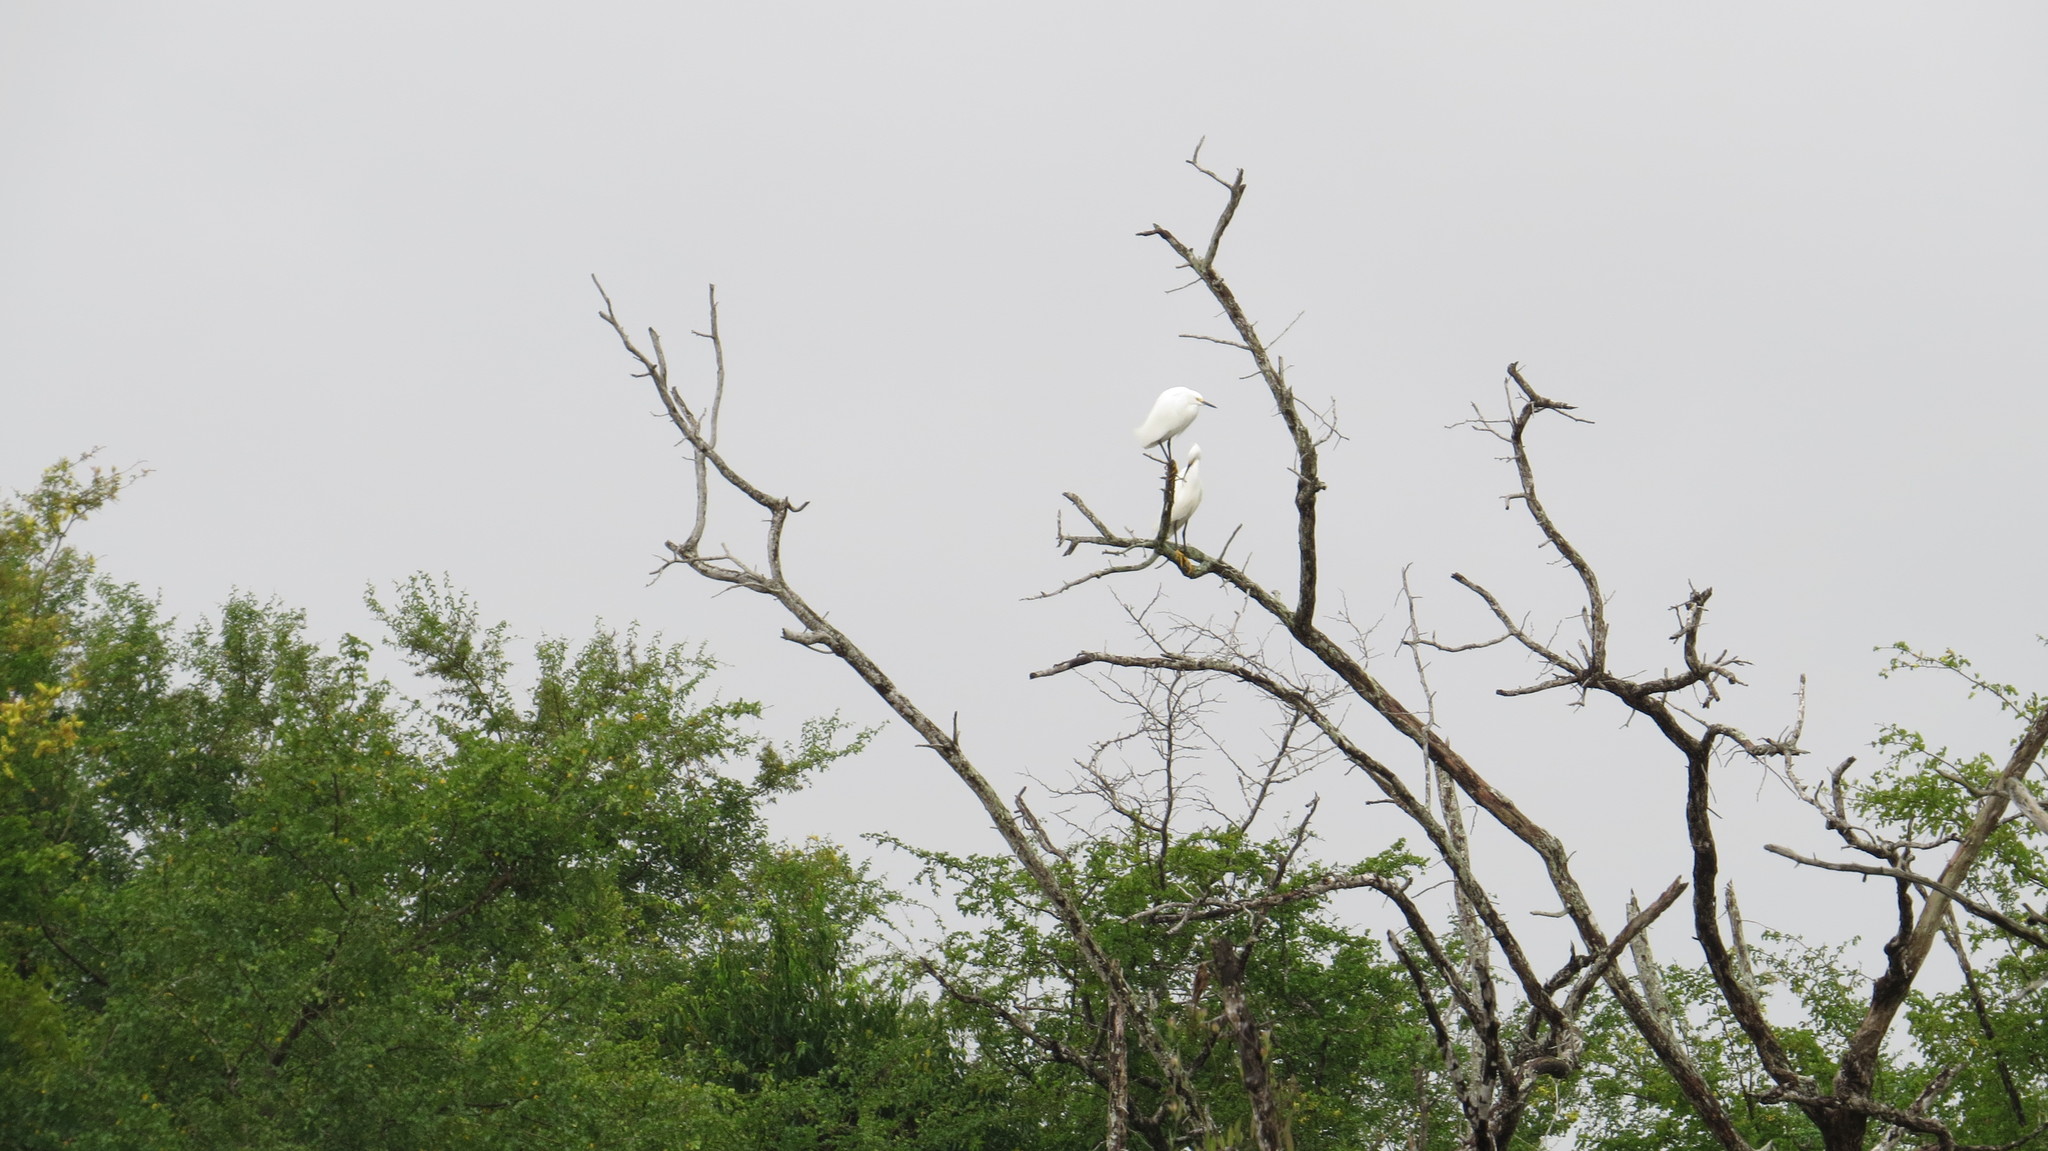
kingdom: Animalia
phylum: Chordata
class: Aves
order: Pelecaniformes
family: Ardeidae
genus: Egretta
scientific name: Egretta thula
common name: Snowy egret
